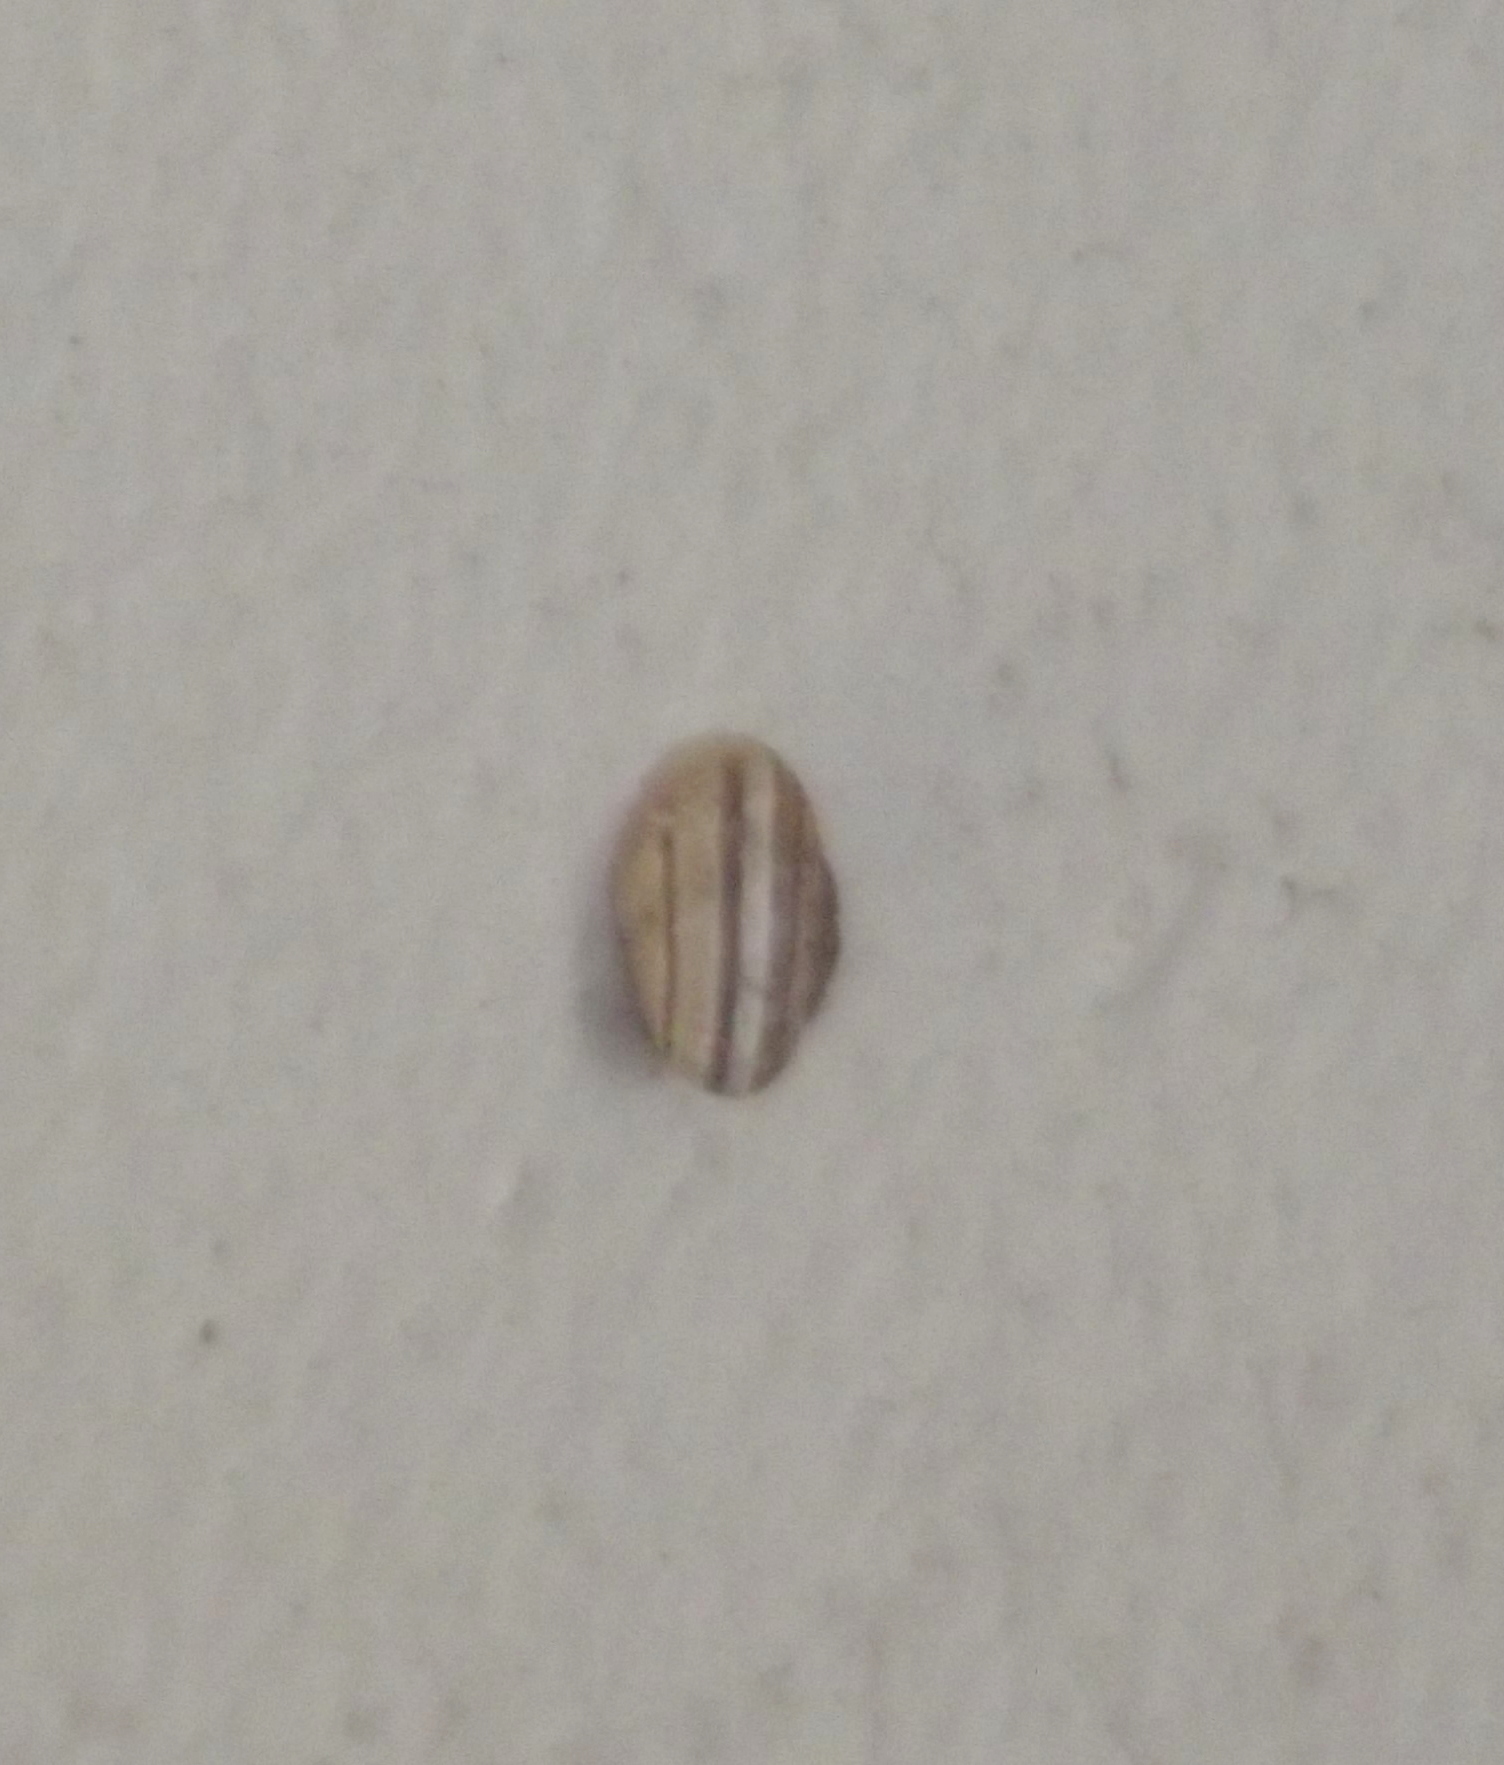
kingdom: Animalia
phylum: Mollusca
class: Gastropoda
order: Stylommatophora
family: Helicidae
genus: Eobania
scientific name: Eobania vermiculata
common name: Chocolateband snail
